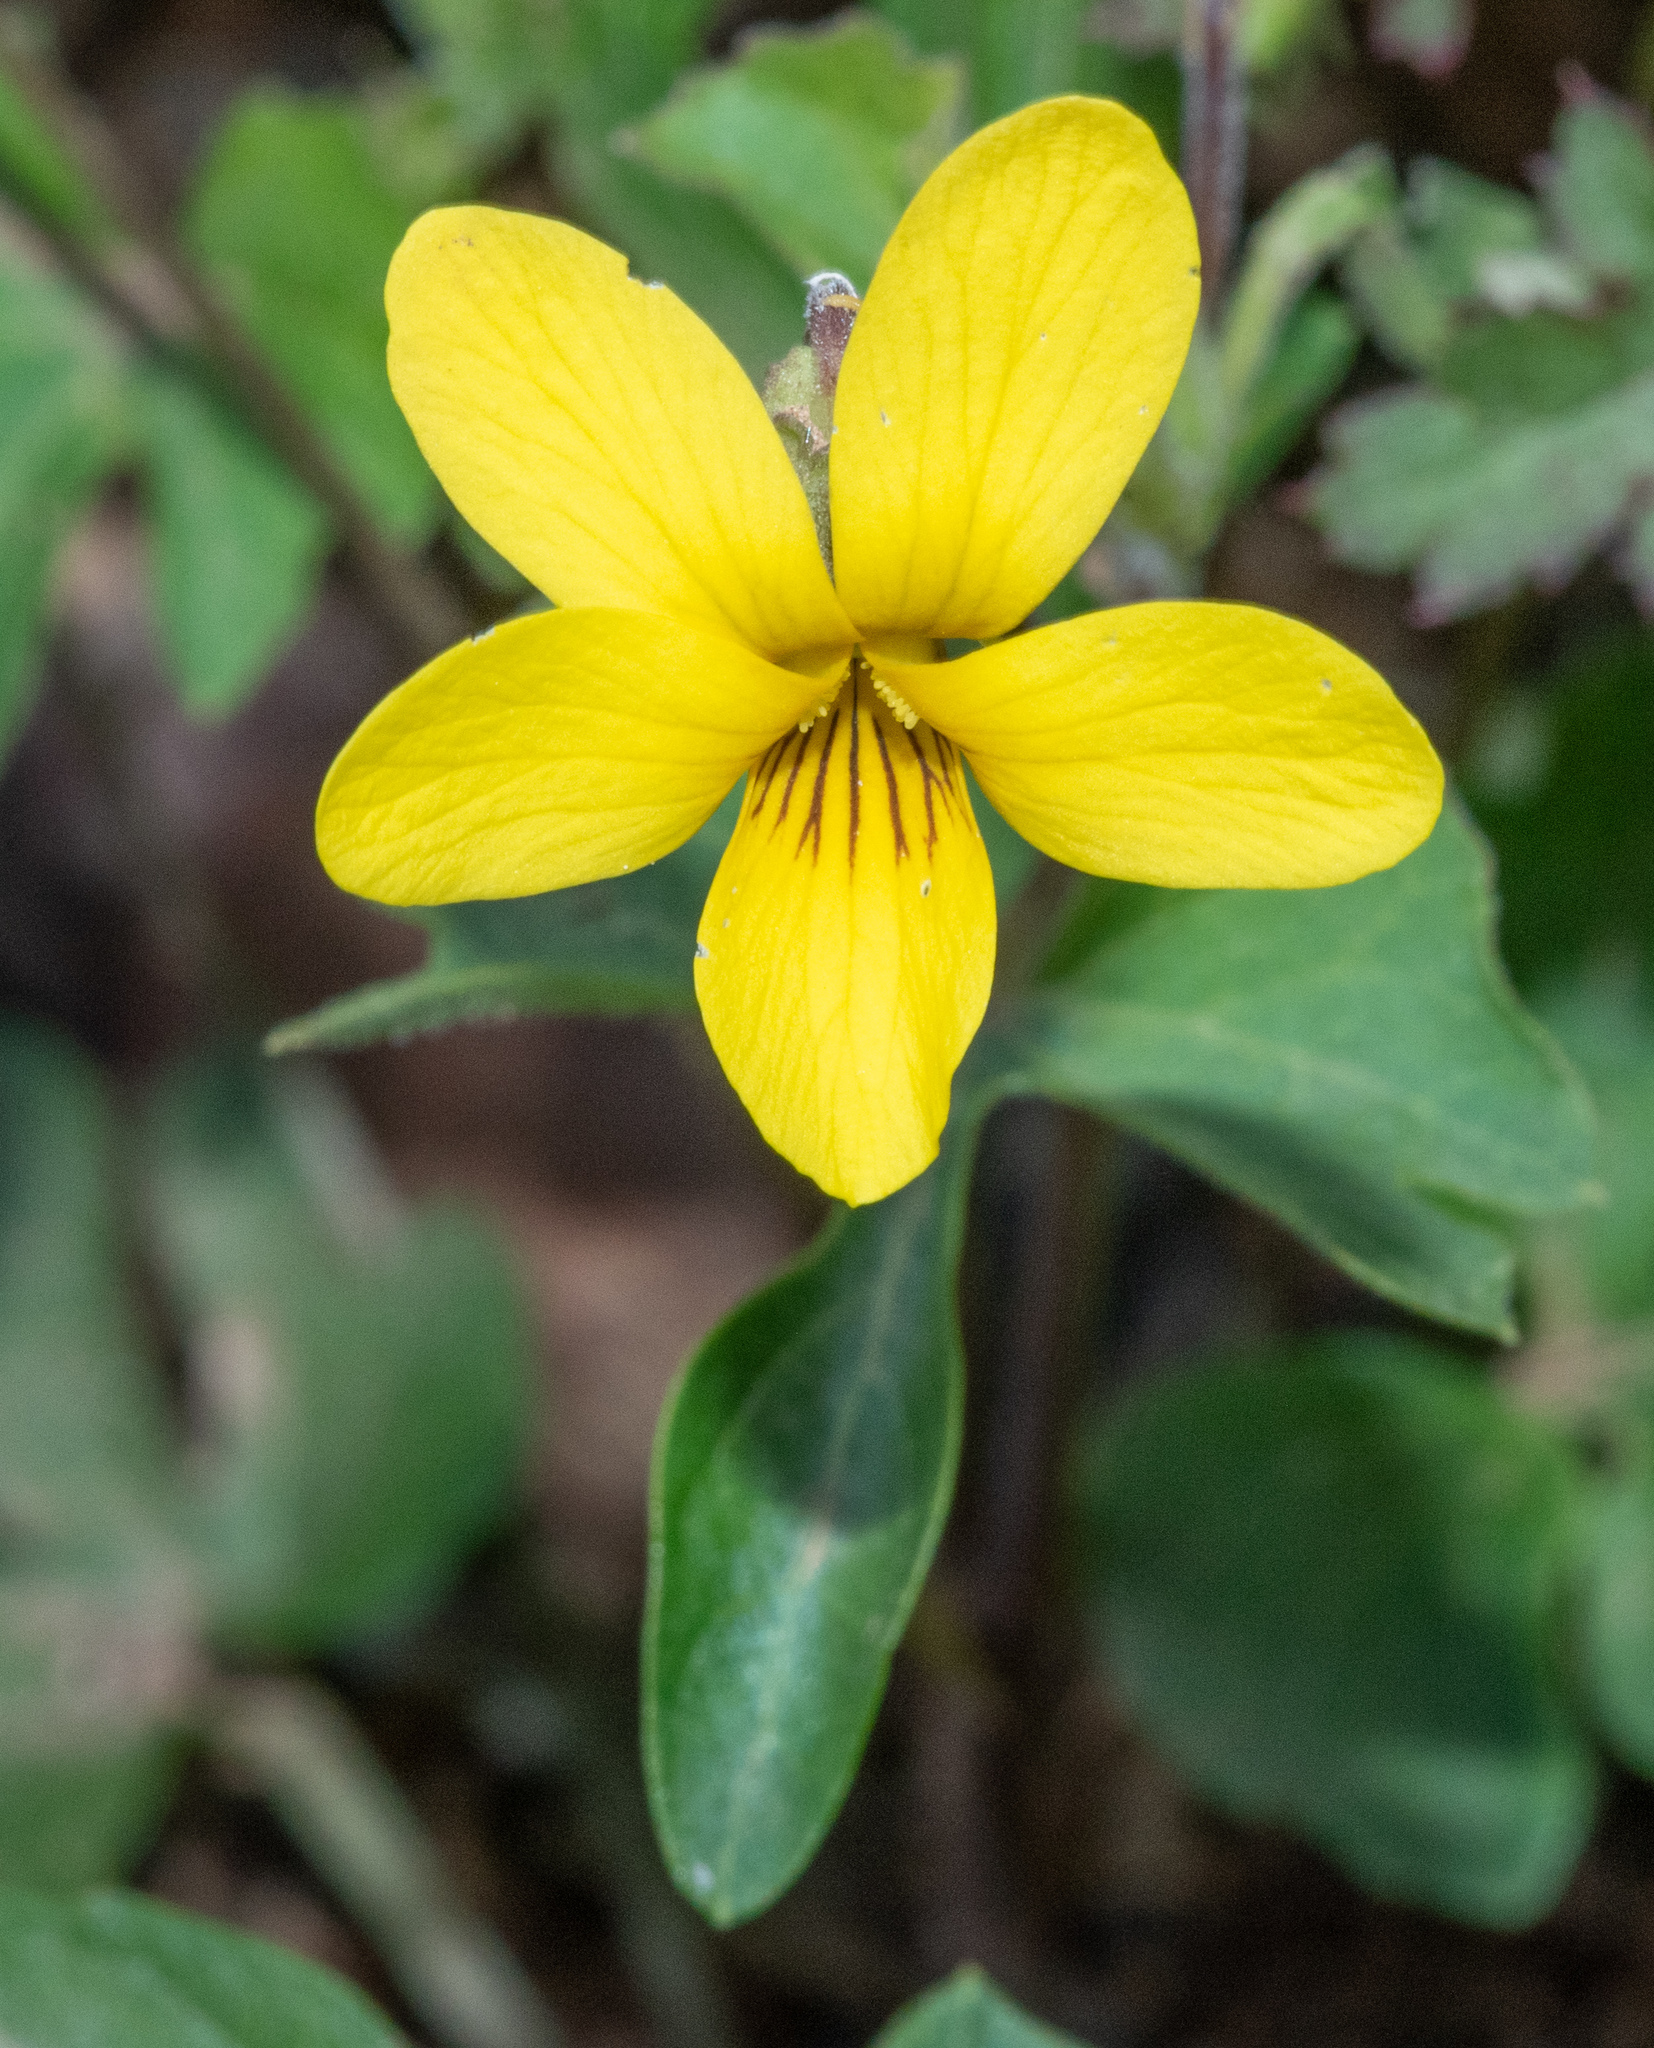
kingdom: Plantae
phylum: Tracheophyta
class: Magnoliopsida
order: Malpighiales
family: Violaceae
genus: Viola
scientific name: Viola lobata
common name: Pine violet
